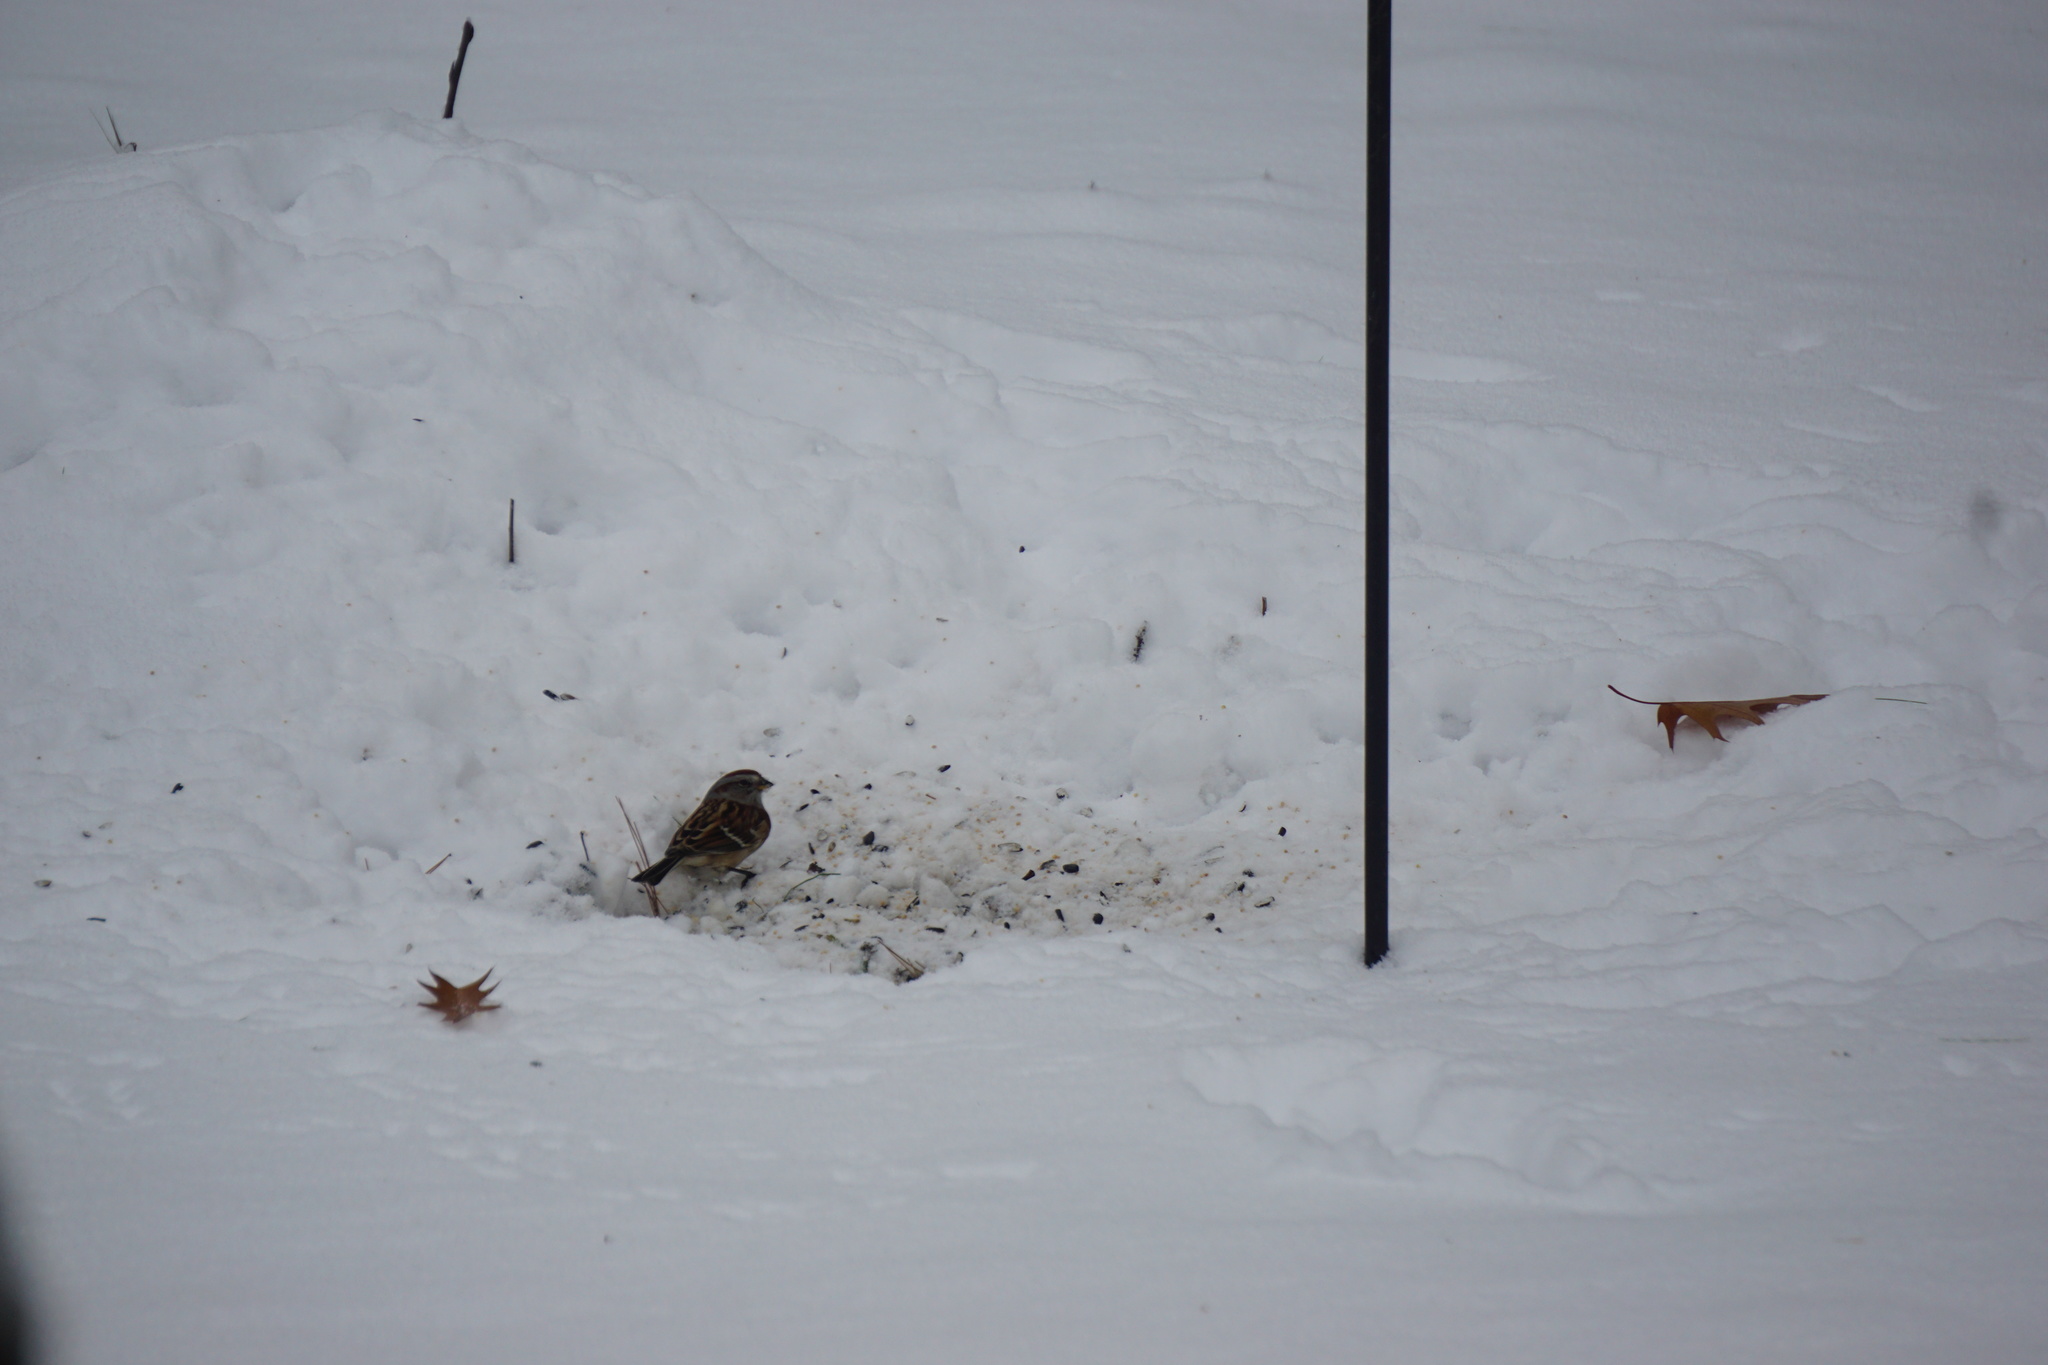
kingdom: Animalia
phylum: Chordata
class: Aves
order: Passeriformes
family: Passerellidae
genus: Spizelloides
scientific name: Spizelloides arborea
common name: American tree sparrow
